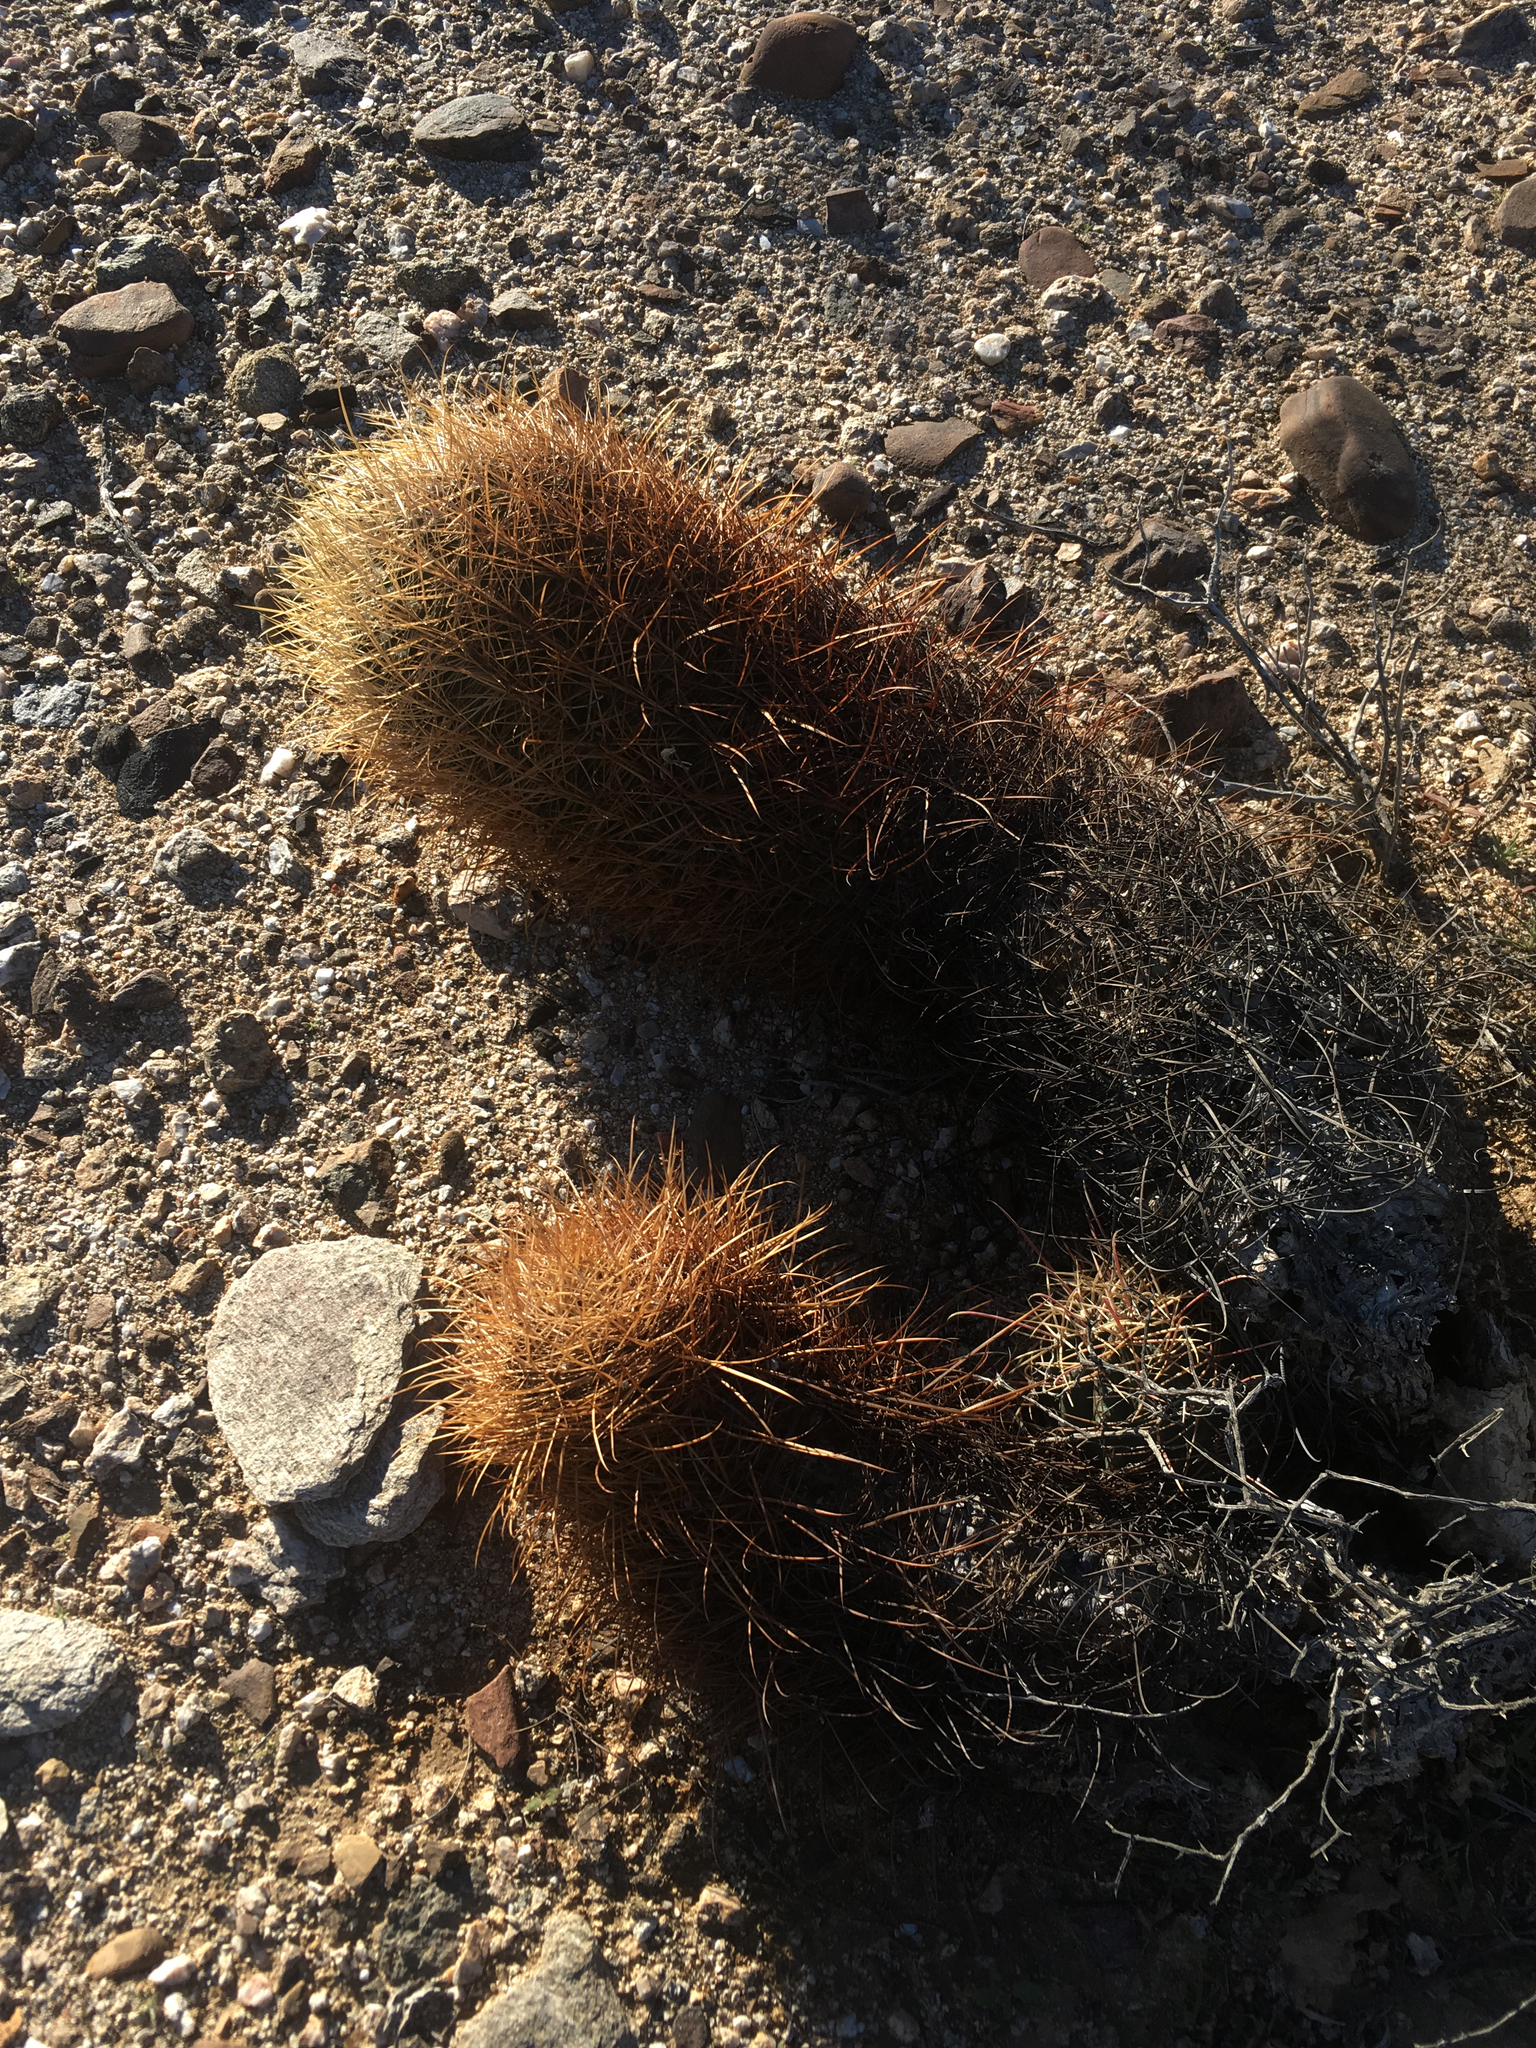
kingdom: Plantae
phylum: Tracheophyta
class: Magnoliopsida
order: Caryophyllales
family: Cactaceae
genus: Ferocactus
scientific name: Ferocactus cylindraceus
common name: California barrel cactus
